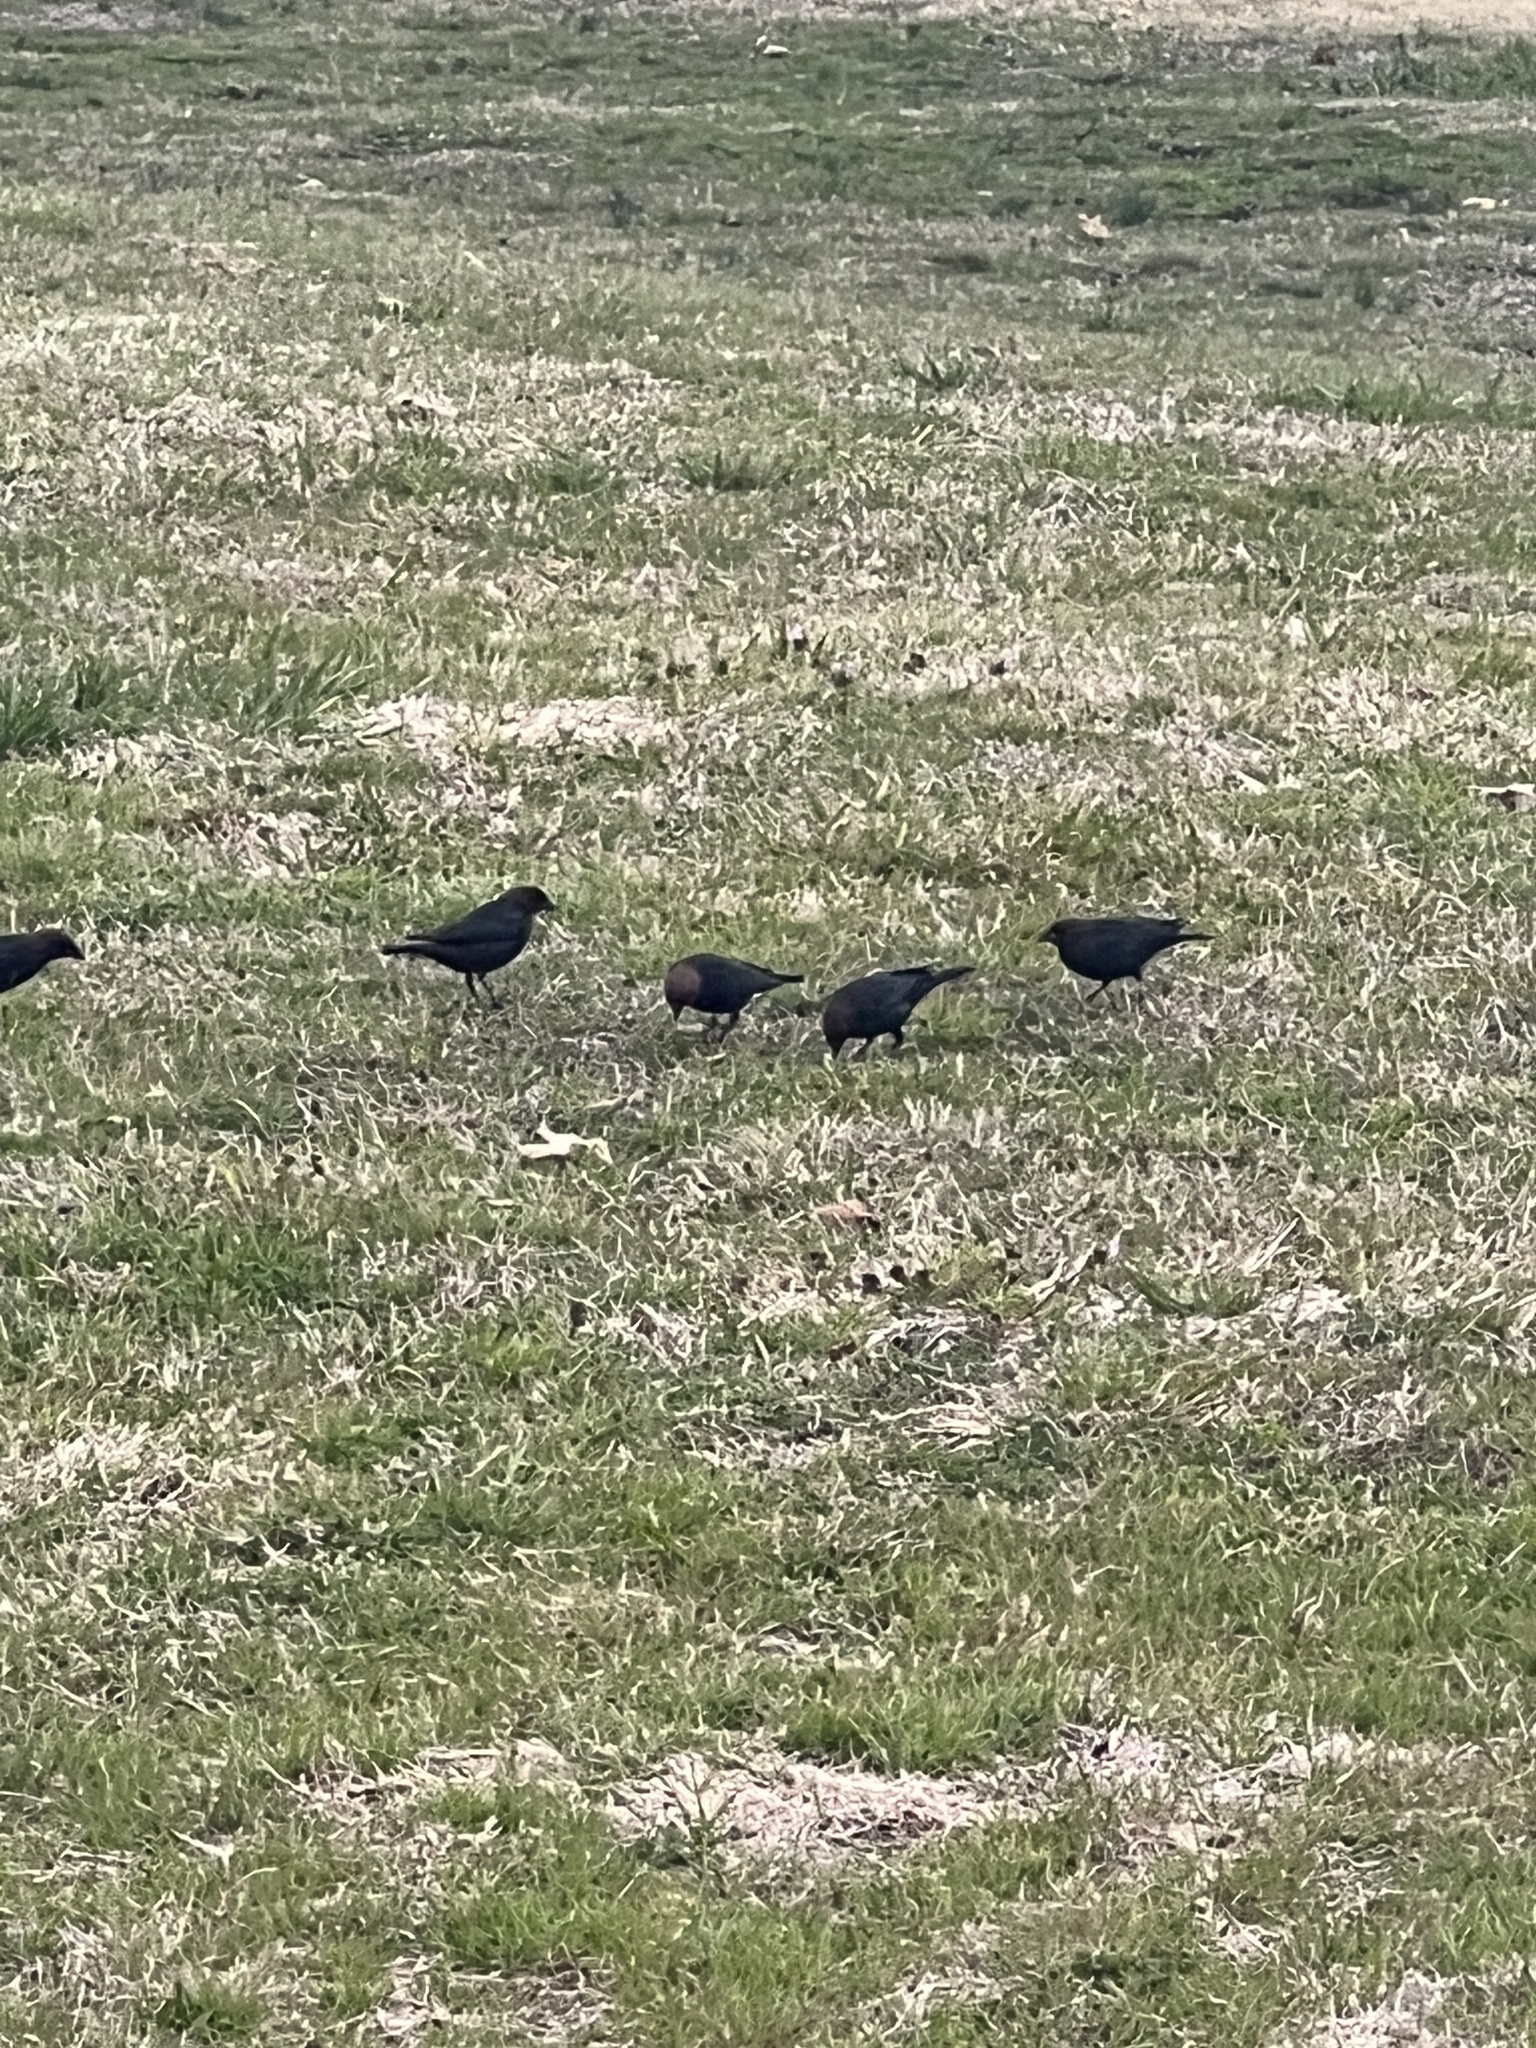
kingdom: Animalia
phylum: Chordata
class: Aves
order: Passeriformes
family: Icteridae
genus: Molothrus
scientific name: Molothrus ater
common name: Brown-headed cowbird
